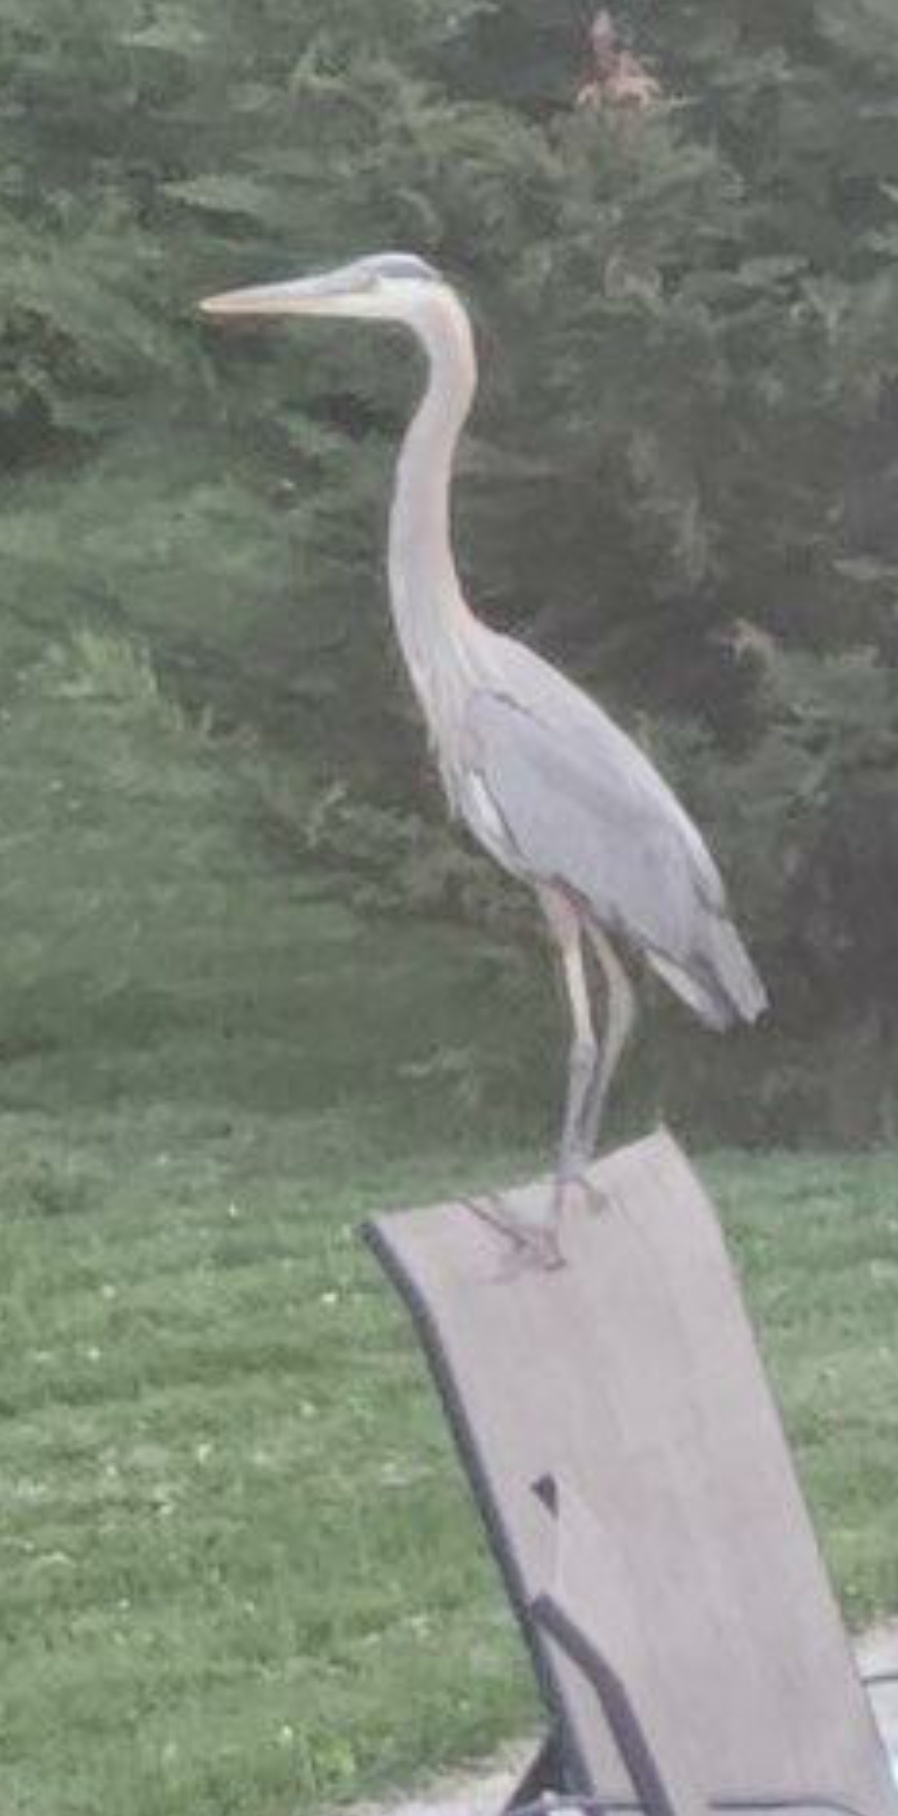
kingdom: Animalia
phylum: Chordata
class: Aves
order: Pelecaniformes
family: Ardeidae
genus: Ardea
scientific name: Ardea herodias
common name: Great blue heron
